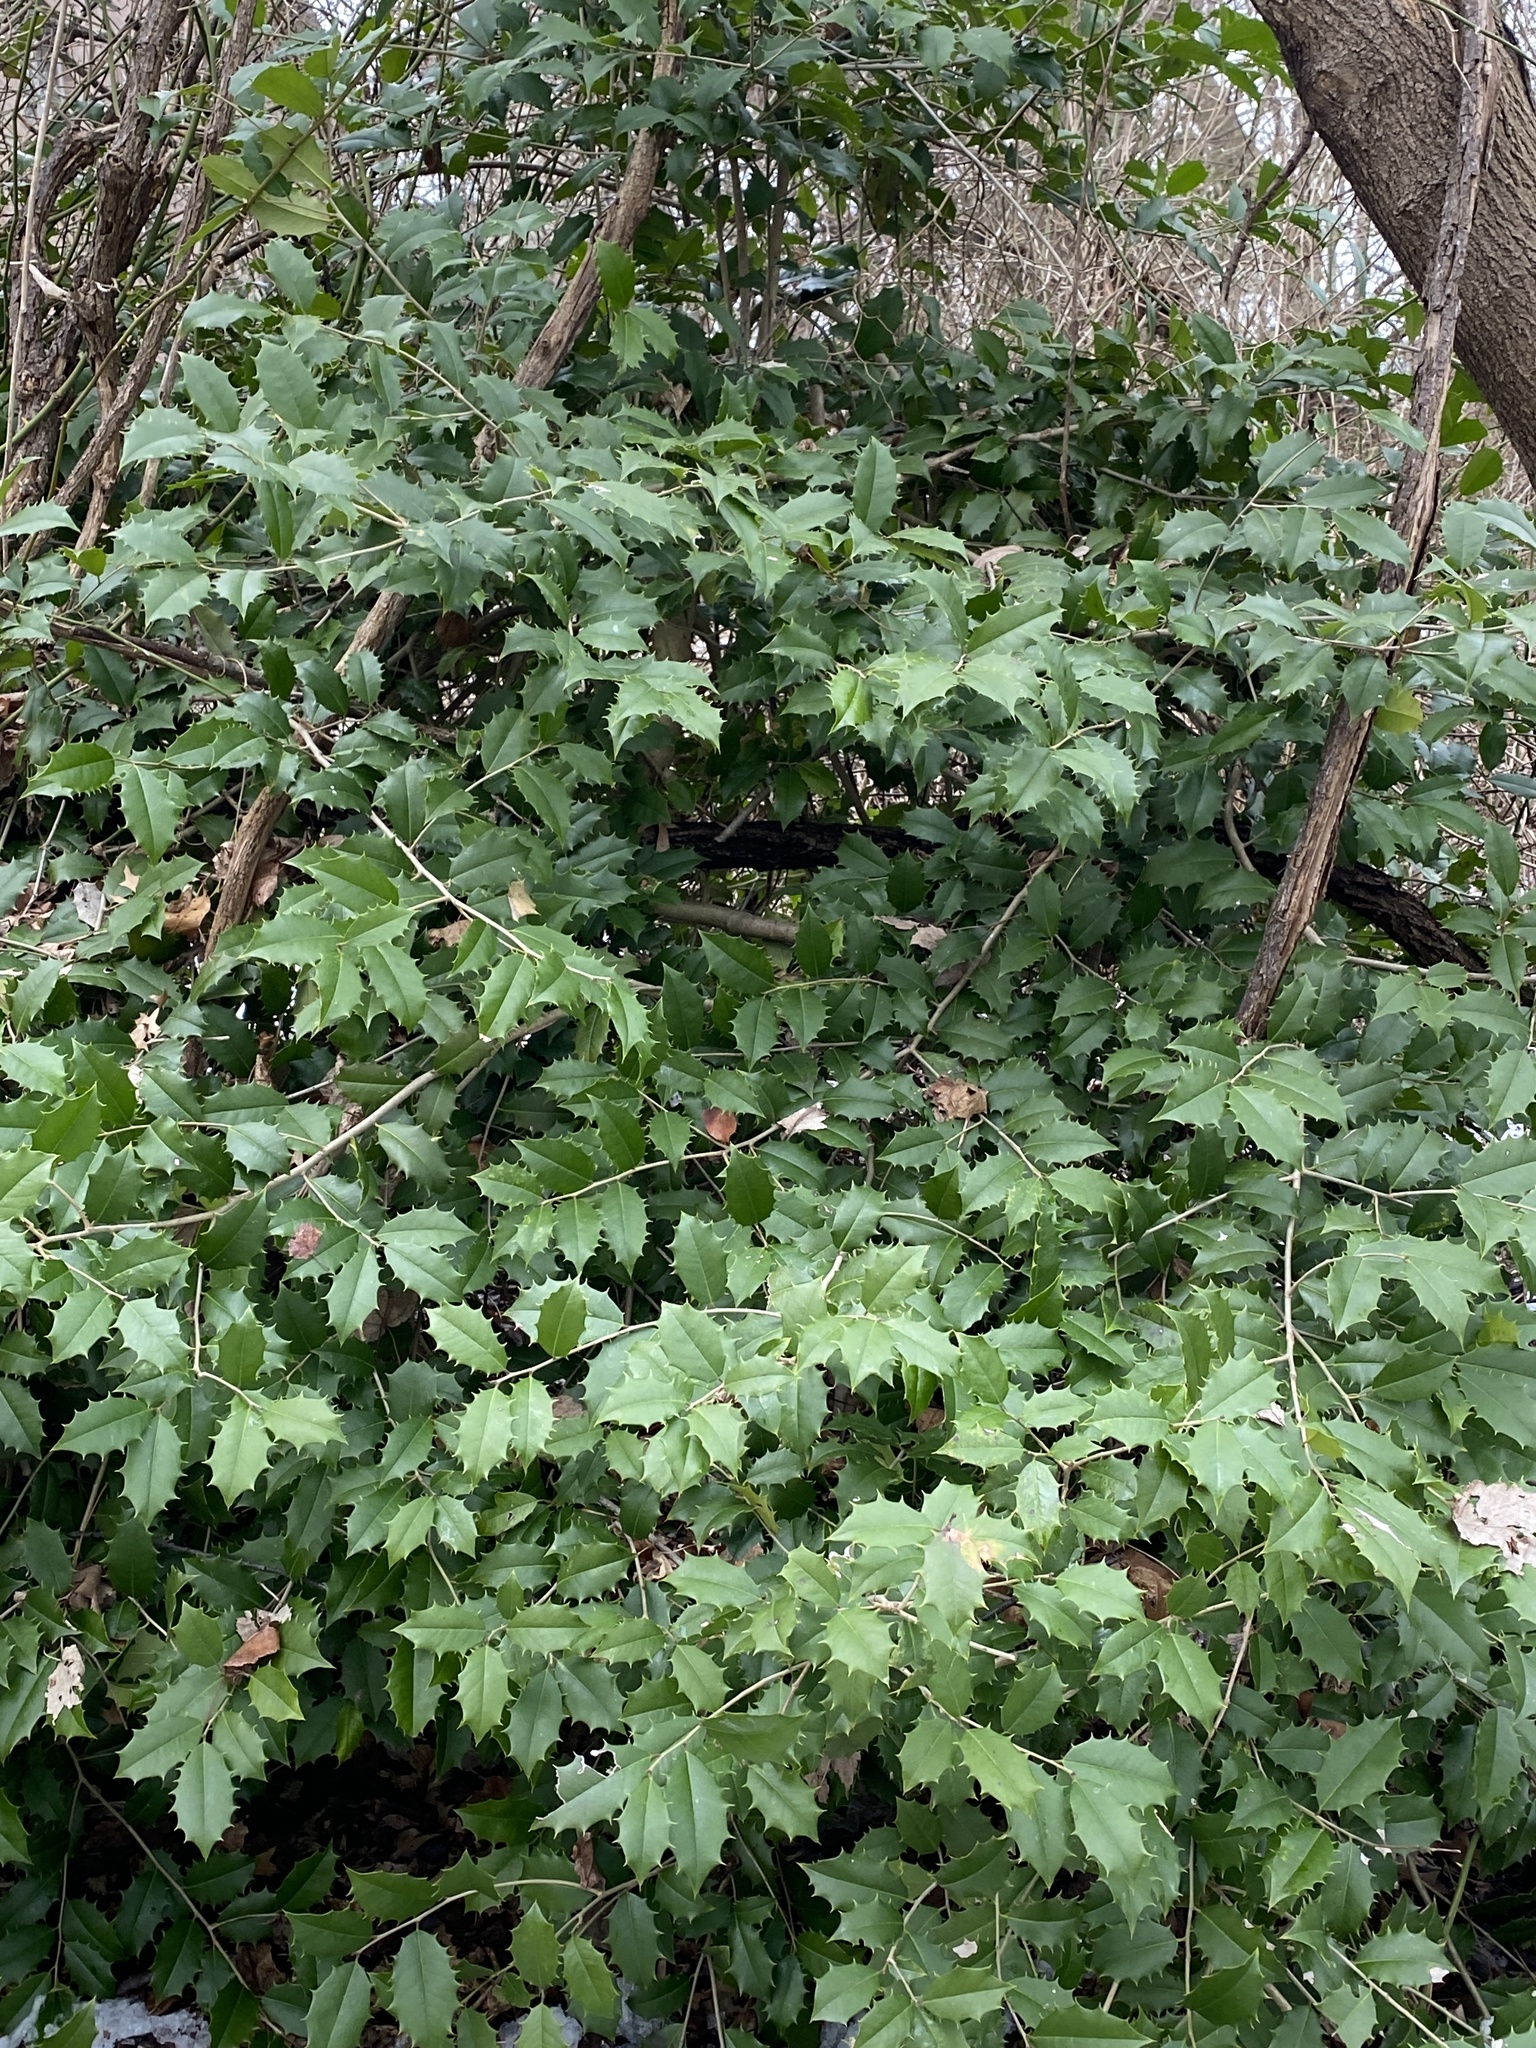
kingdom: Plantae
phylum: Tracheophyta
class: Magnoliopsida
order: Aquifoliales
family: Aquifoliaceae
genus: Ilex
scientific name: Ilex opaca
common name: American holly
